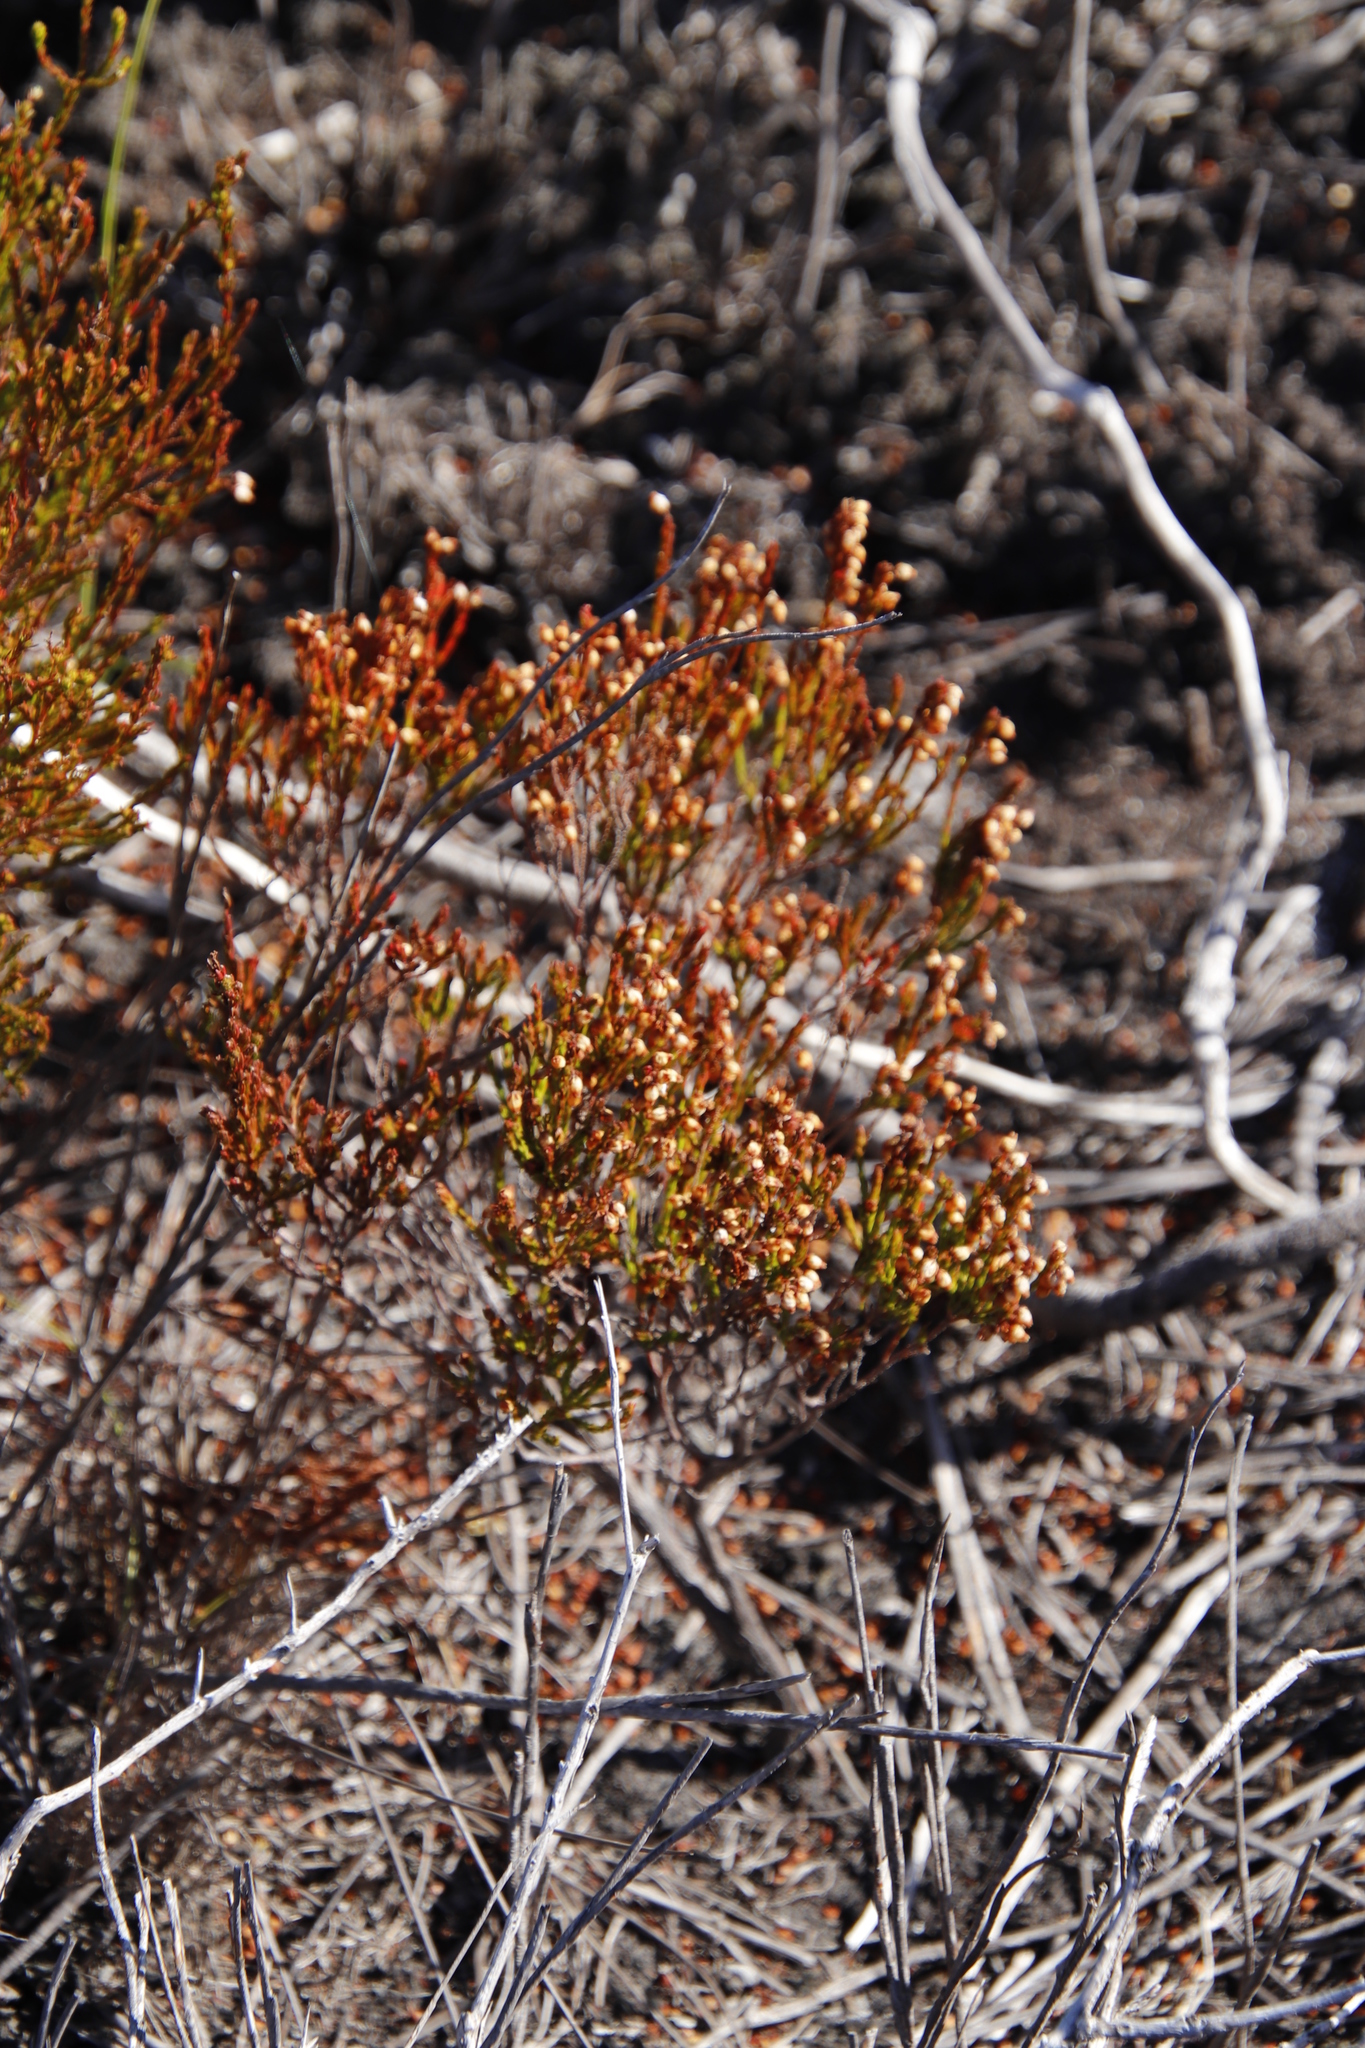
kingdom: Plantae
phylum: Tracheophyta
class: Magnoliopsida
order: Ericales
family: Ericaceae
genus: Erica
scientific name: Erica laeta
